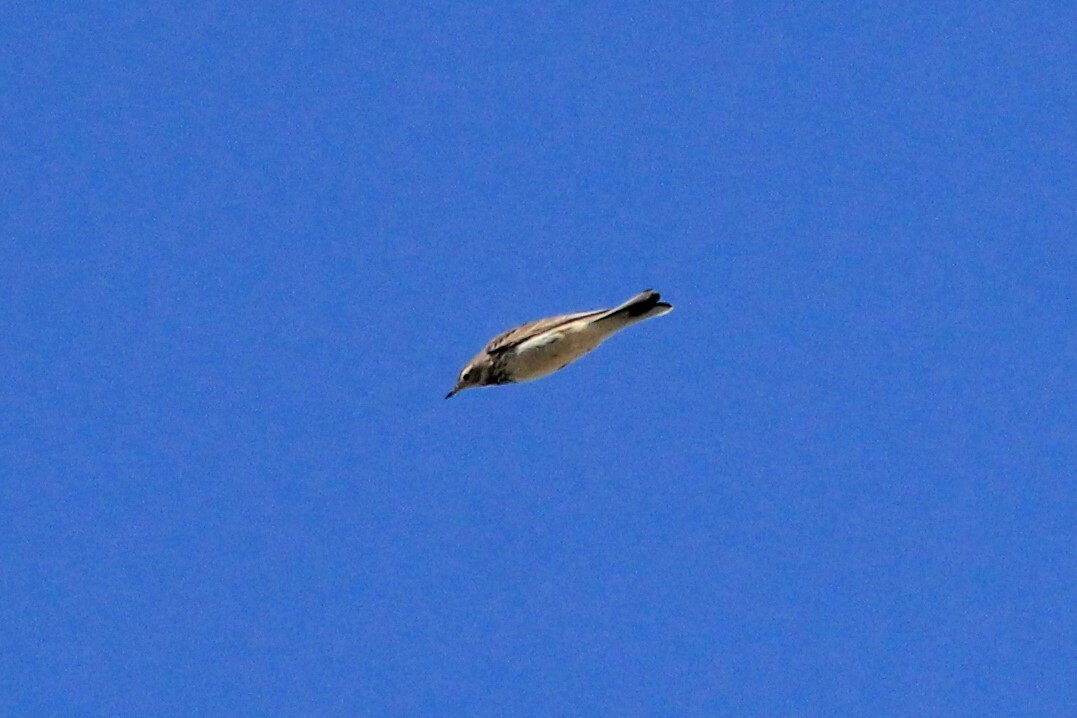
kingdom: Animalia
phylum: Chordata
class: Aves
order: Passeriformes
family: Motacillidae
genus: Anthus
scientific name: Anthus rubescens
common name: Buff-bellied pipit
